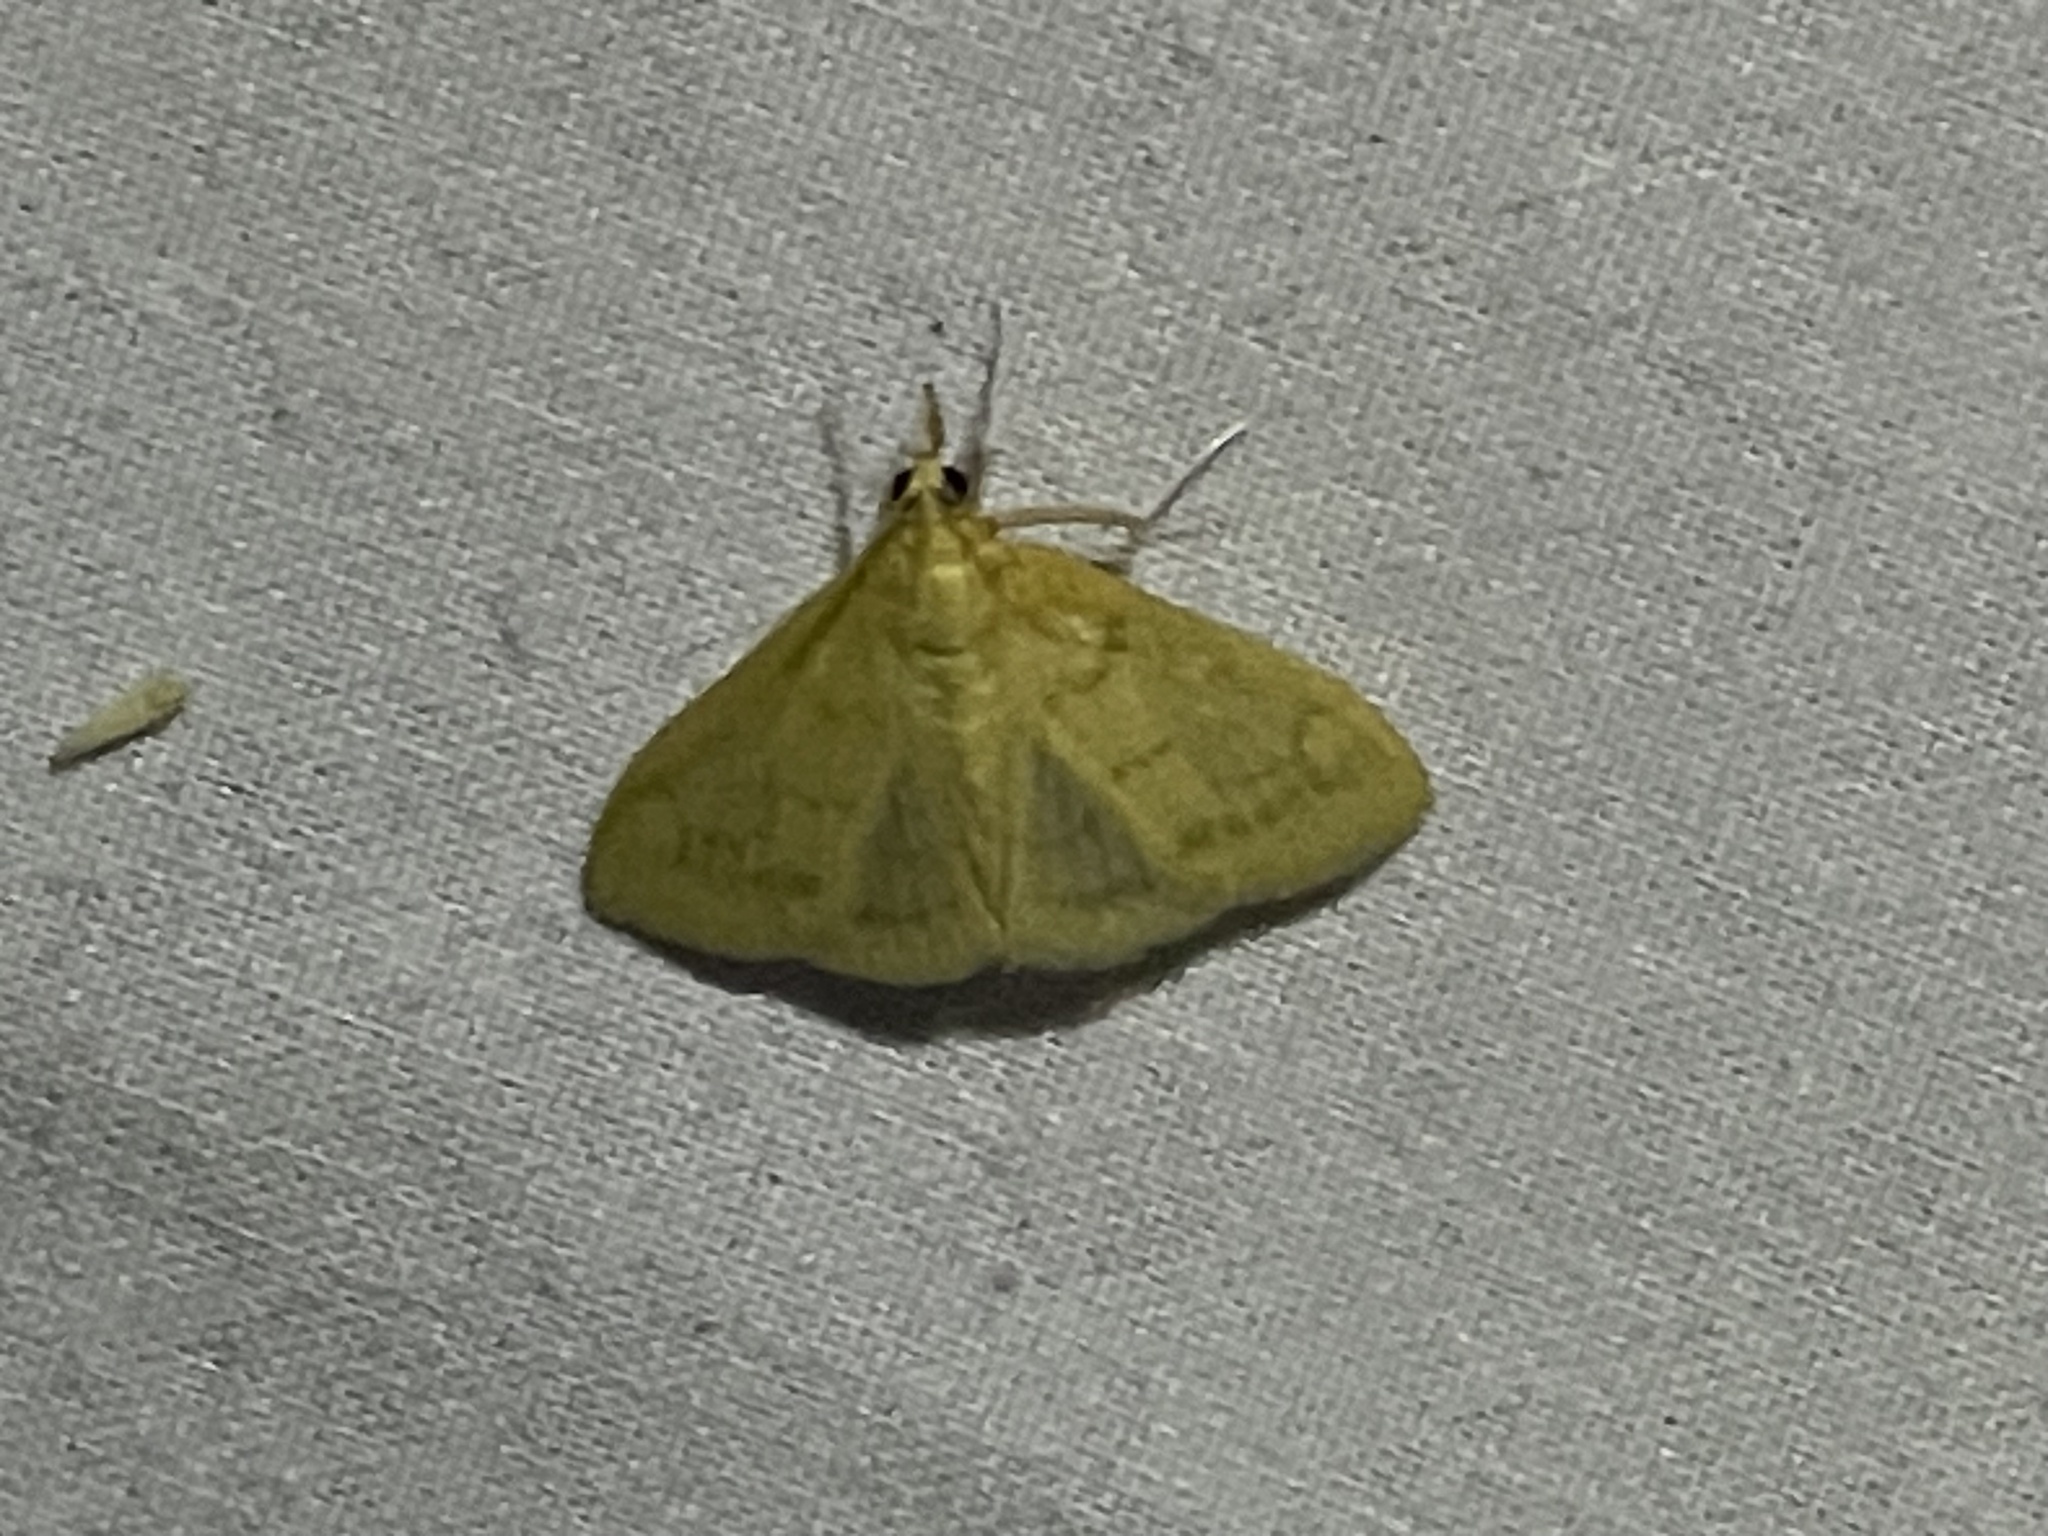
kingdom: Animalia
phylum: Arthropoda
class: Insecta
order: Lepidoptera
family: Crambidae
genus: Hahncappsia
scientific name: Hahncappsia
